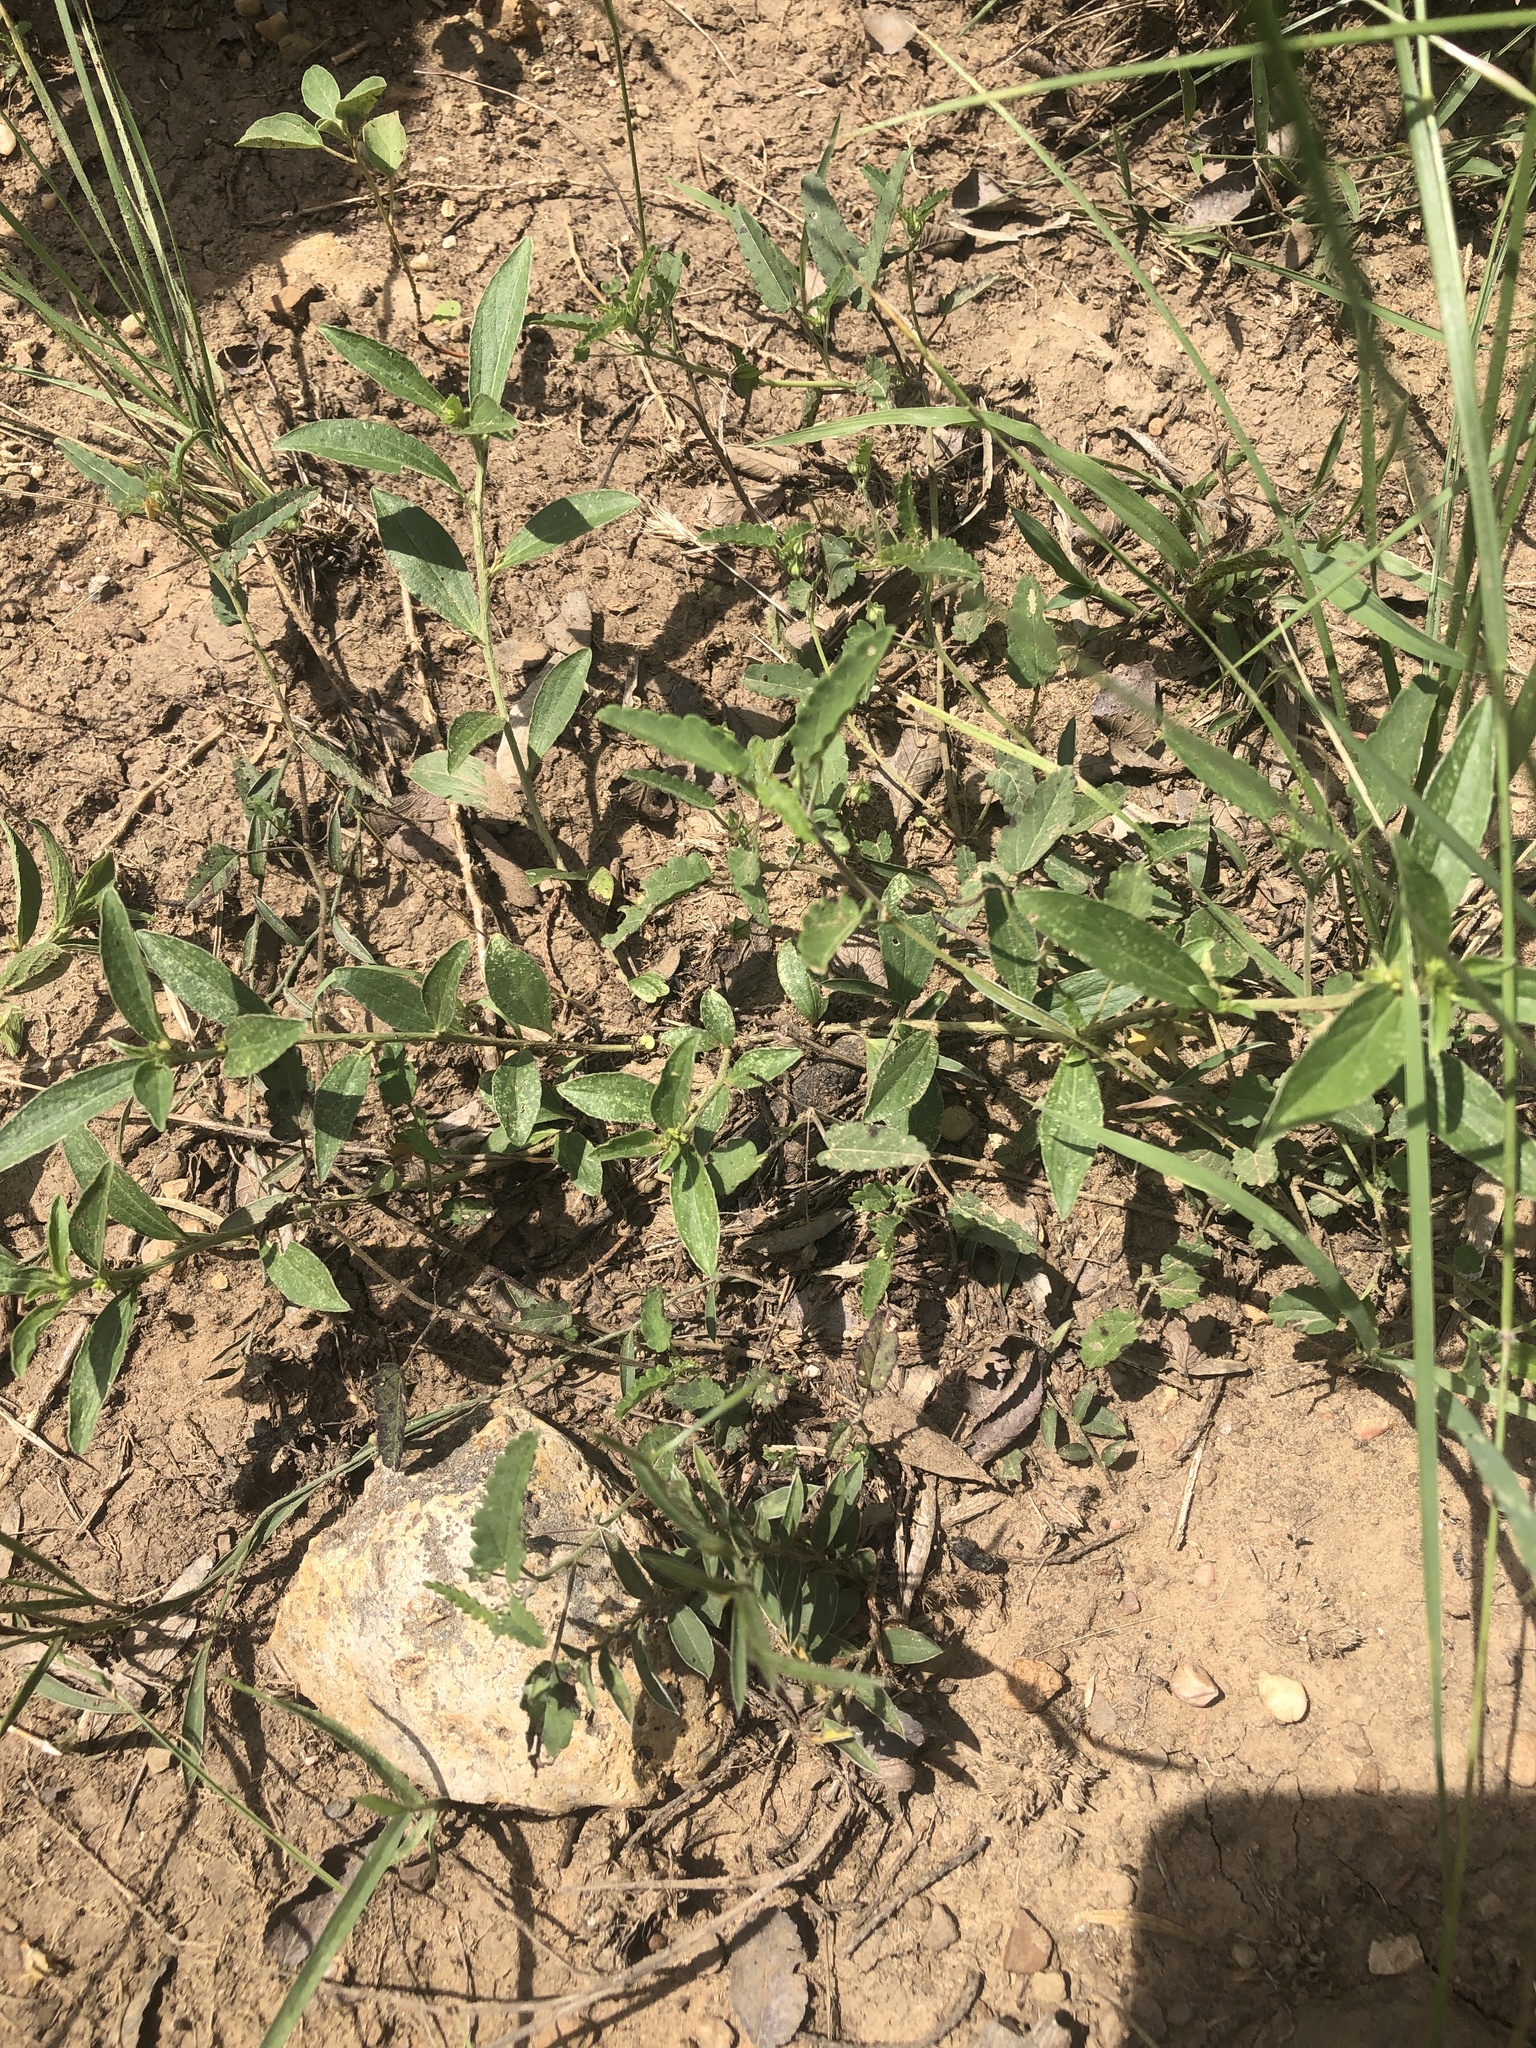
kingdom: Plantae
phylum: Tracheophyta
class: Magnoliopsida
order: Malpighiales
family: Euphorbiaceae
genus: Ditaxis
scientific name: Ditaxis humilis
